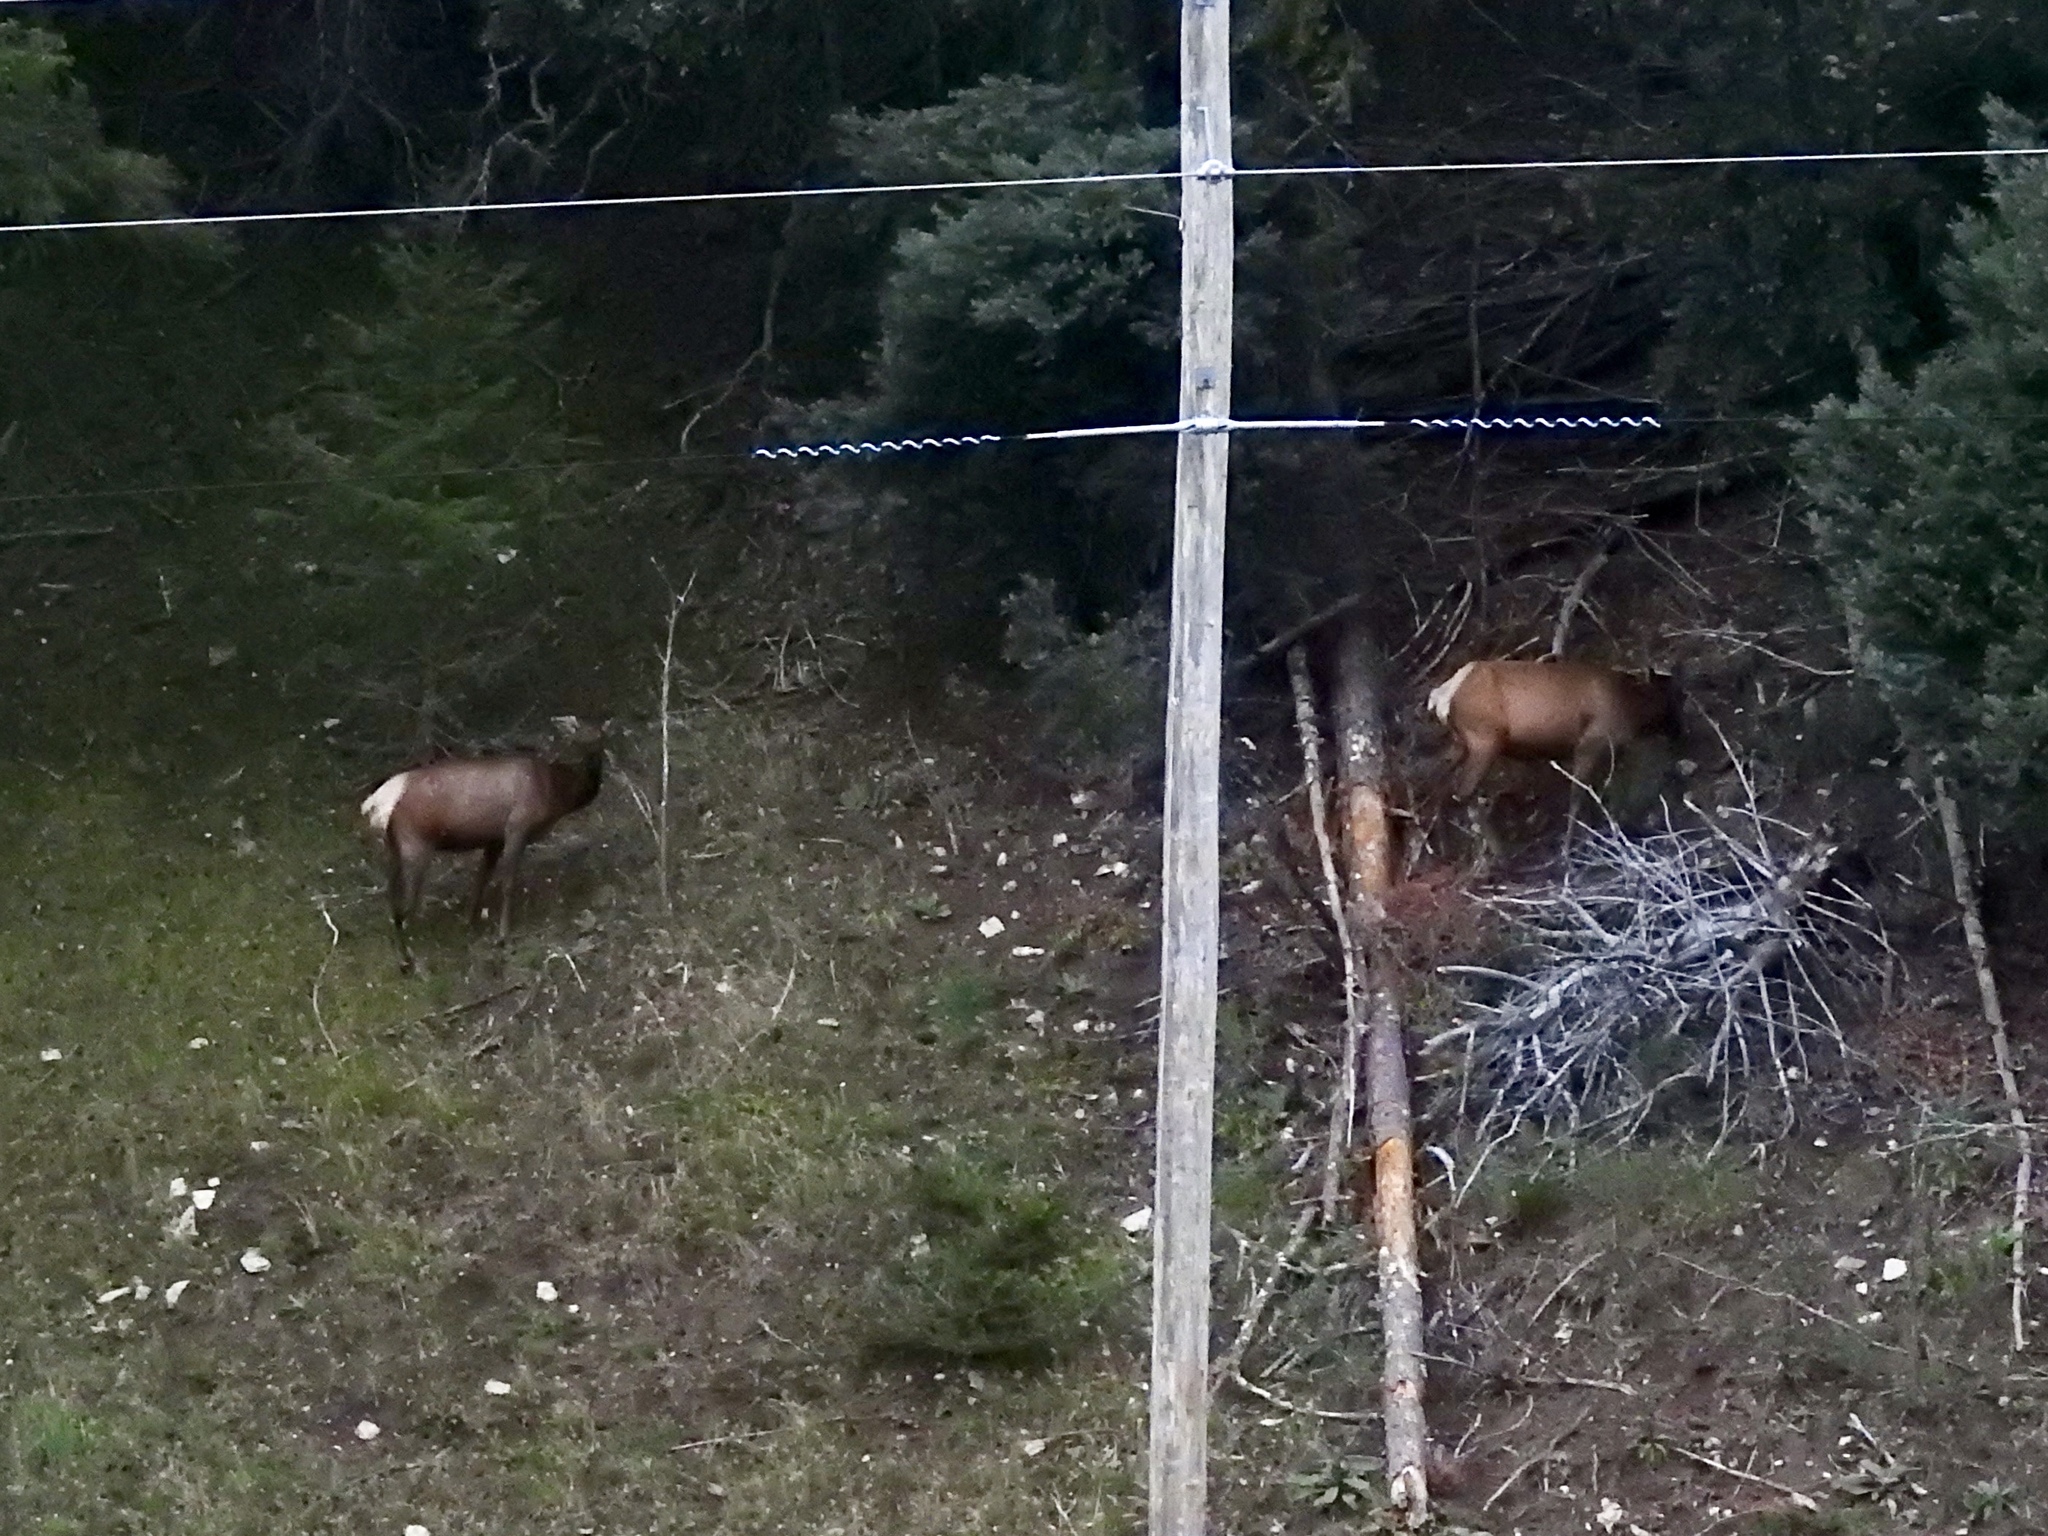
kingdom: Animalia
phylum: Chordata
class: Mammalia
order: Artiodactyla
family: Cervidae
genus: Cervus
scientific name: Cervus elaphus
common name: Red deer
